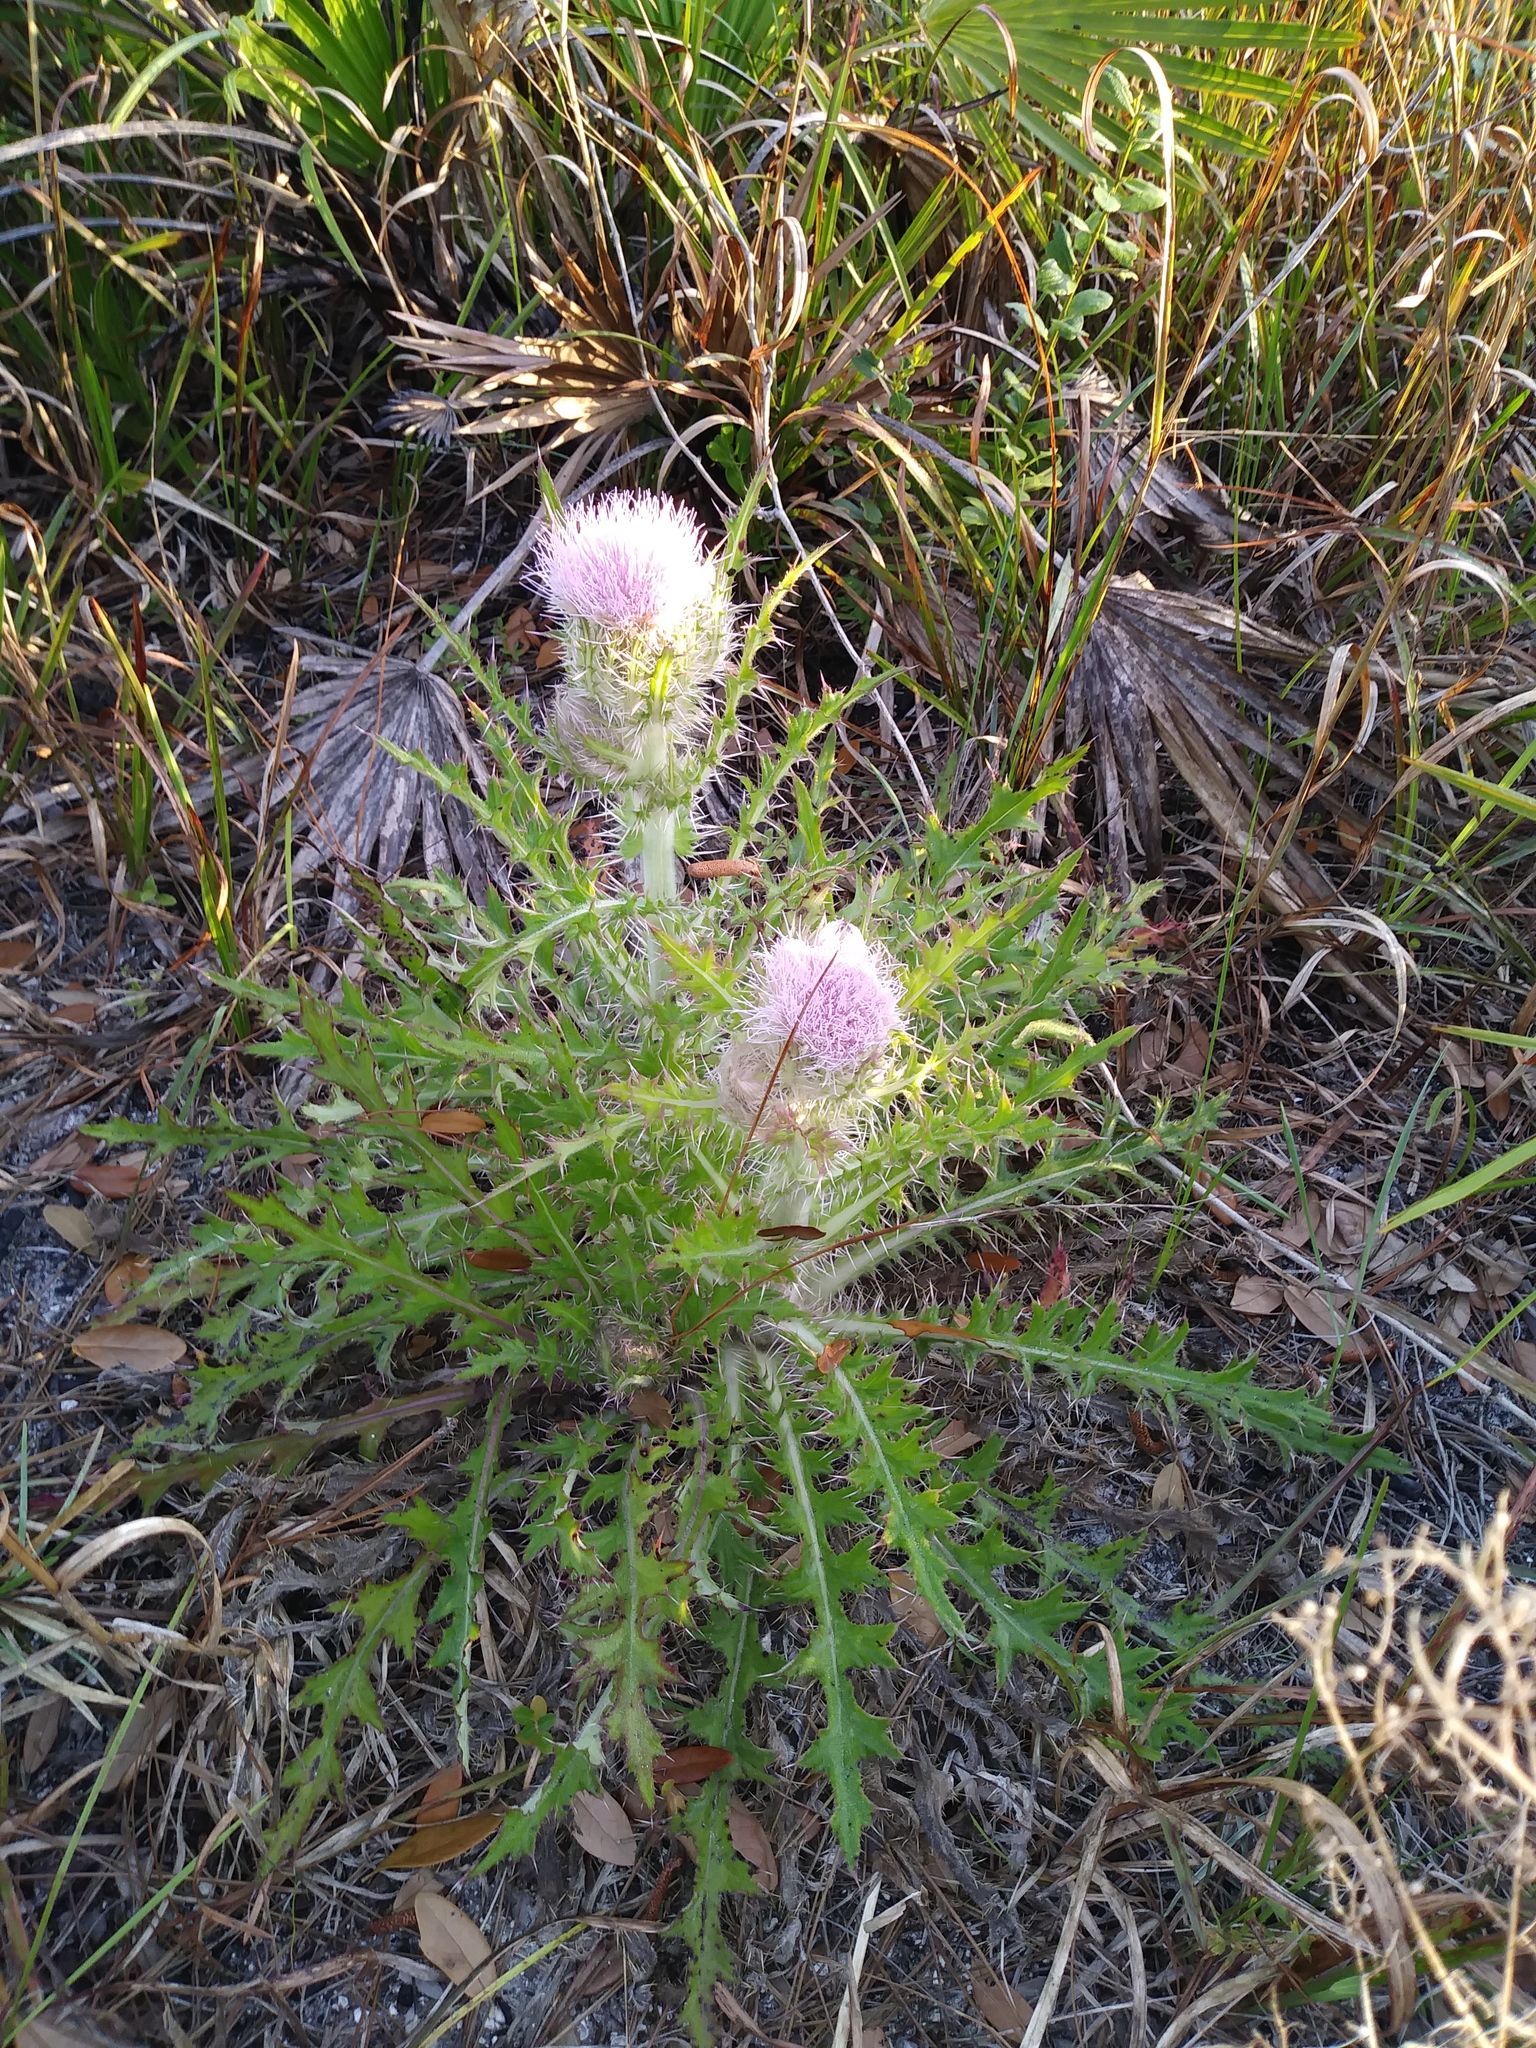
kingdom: Plantae
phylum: Tracheophyta
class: Magnoliopsida
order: Asterales
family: Asteraceae
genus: Cirsium
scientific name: Cirsium horridulum
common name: Bristly thistle
